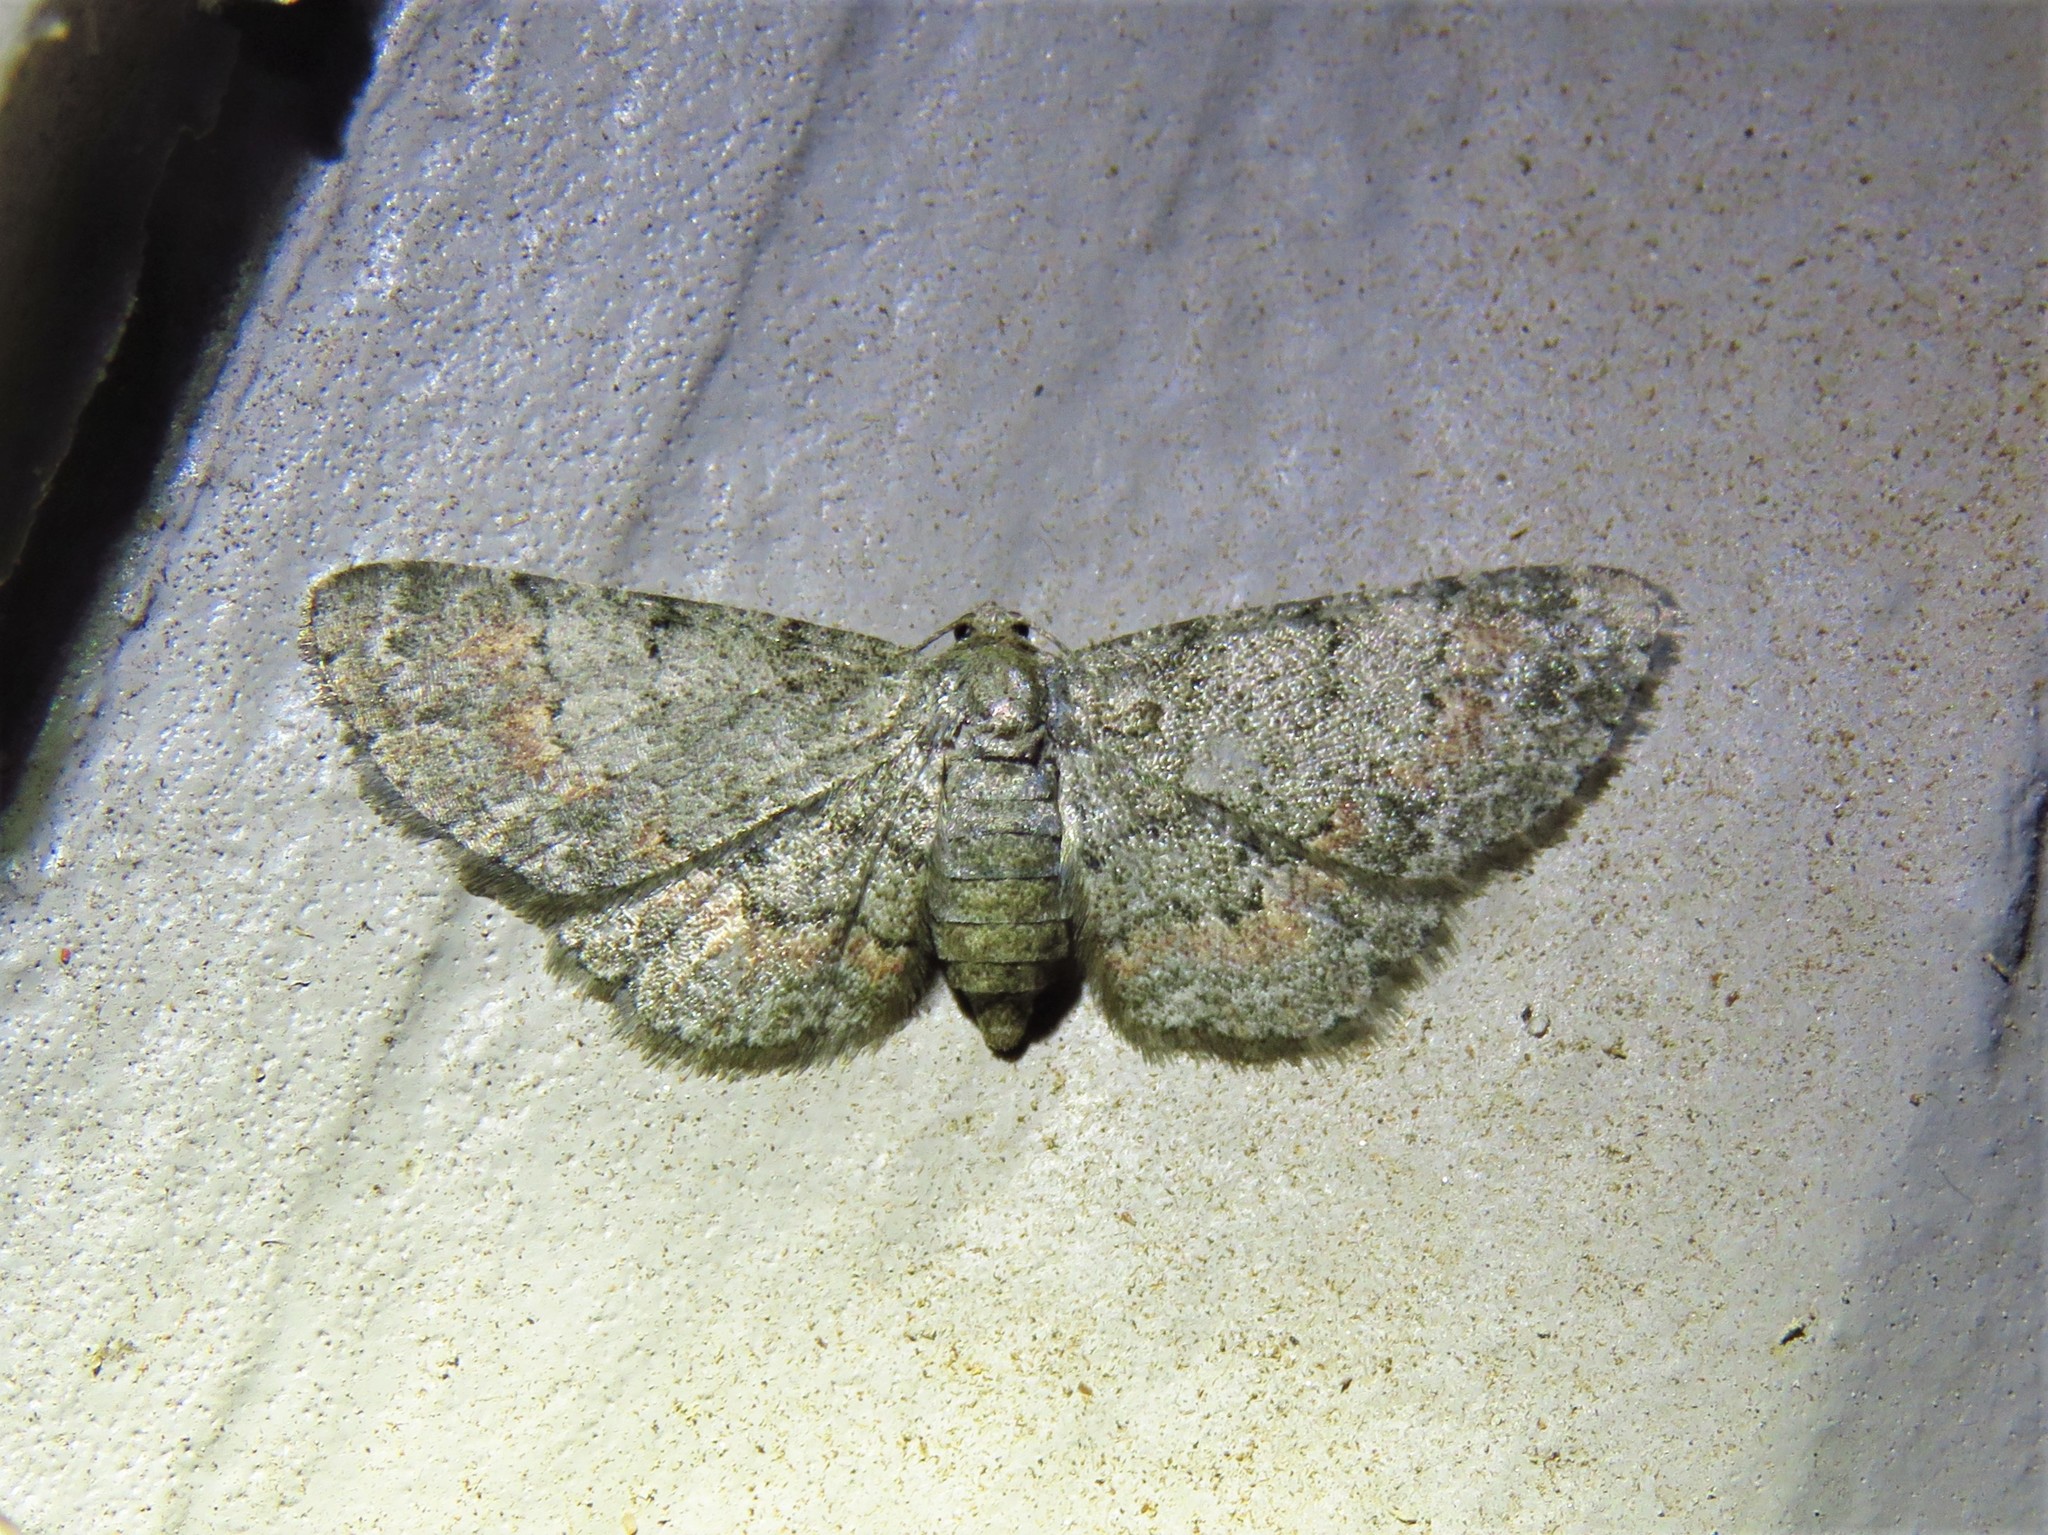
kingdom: Animalia
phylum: Arthropoda
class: Insecta
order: Lepidoptera
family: Geometridae
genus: Glenoides
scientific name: Glenoides texanaria
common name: Texas gray
